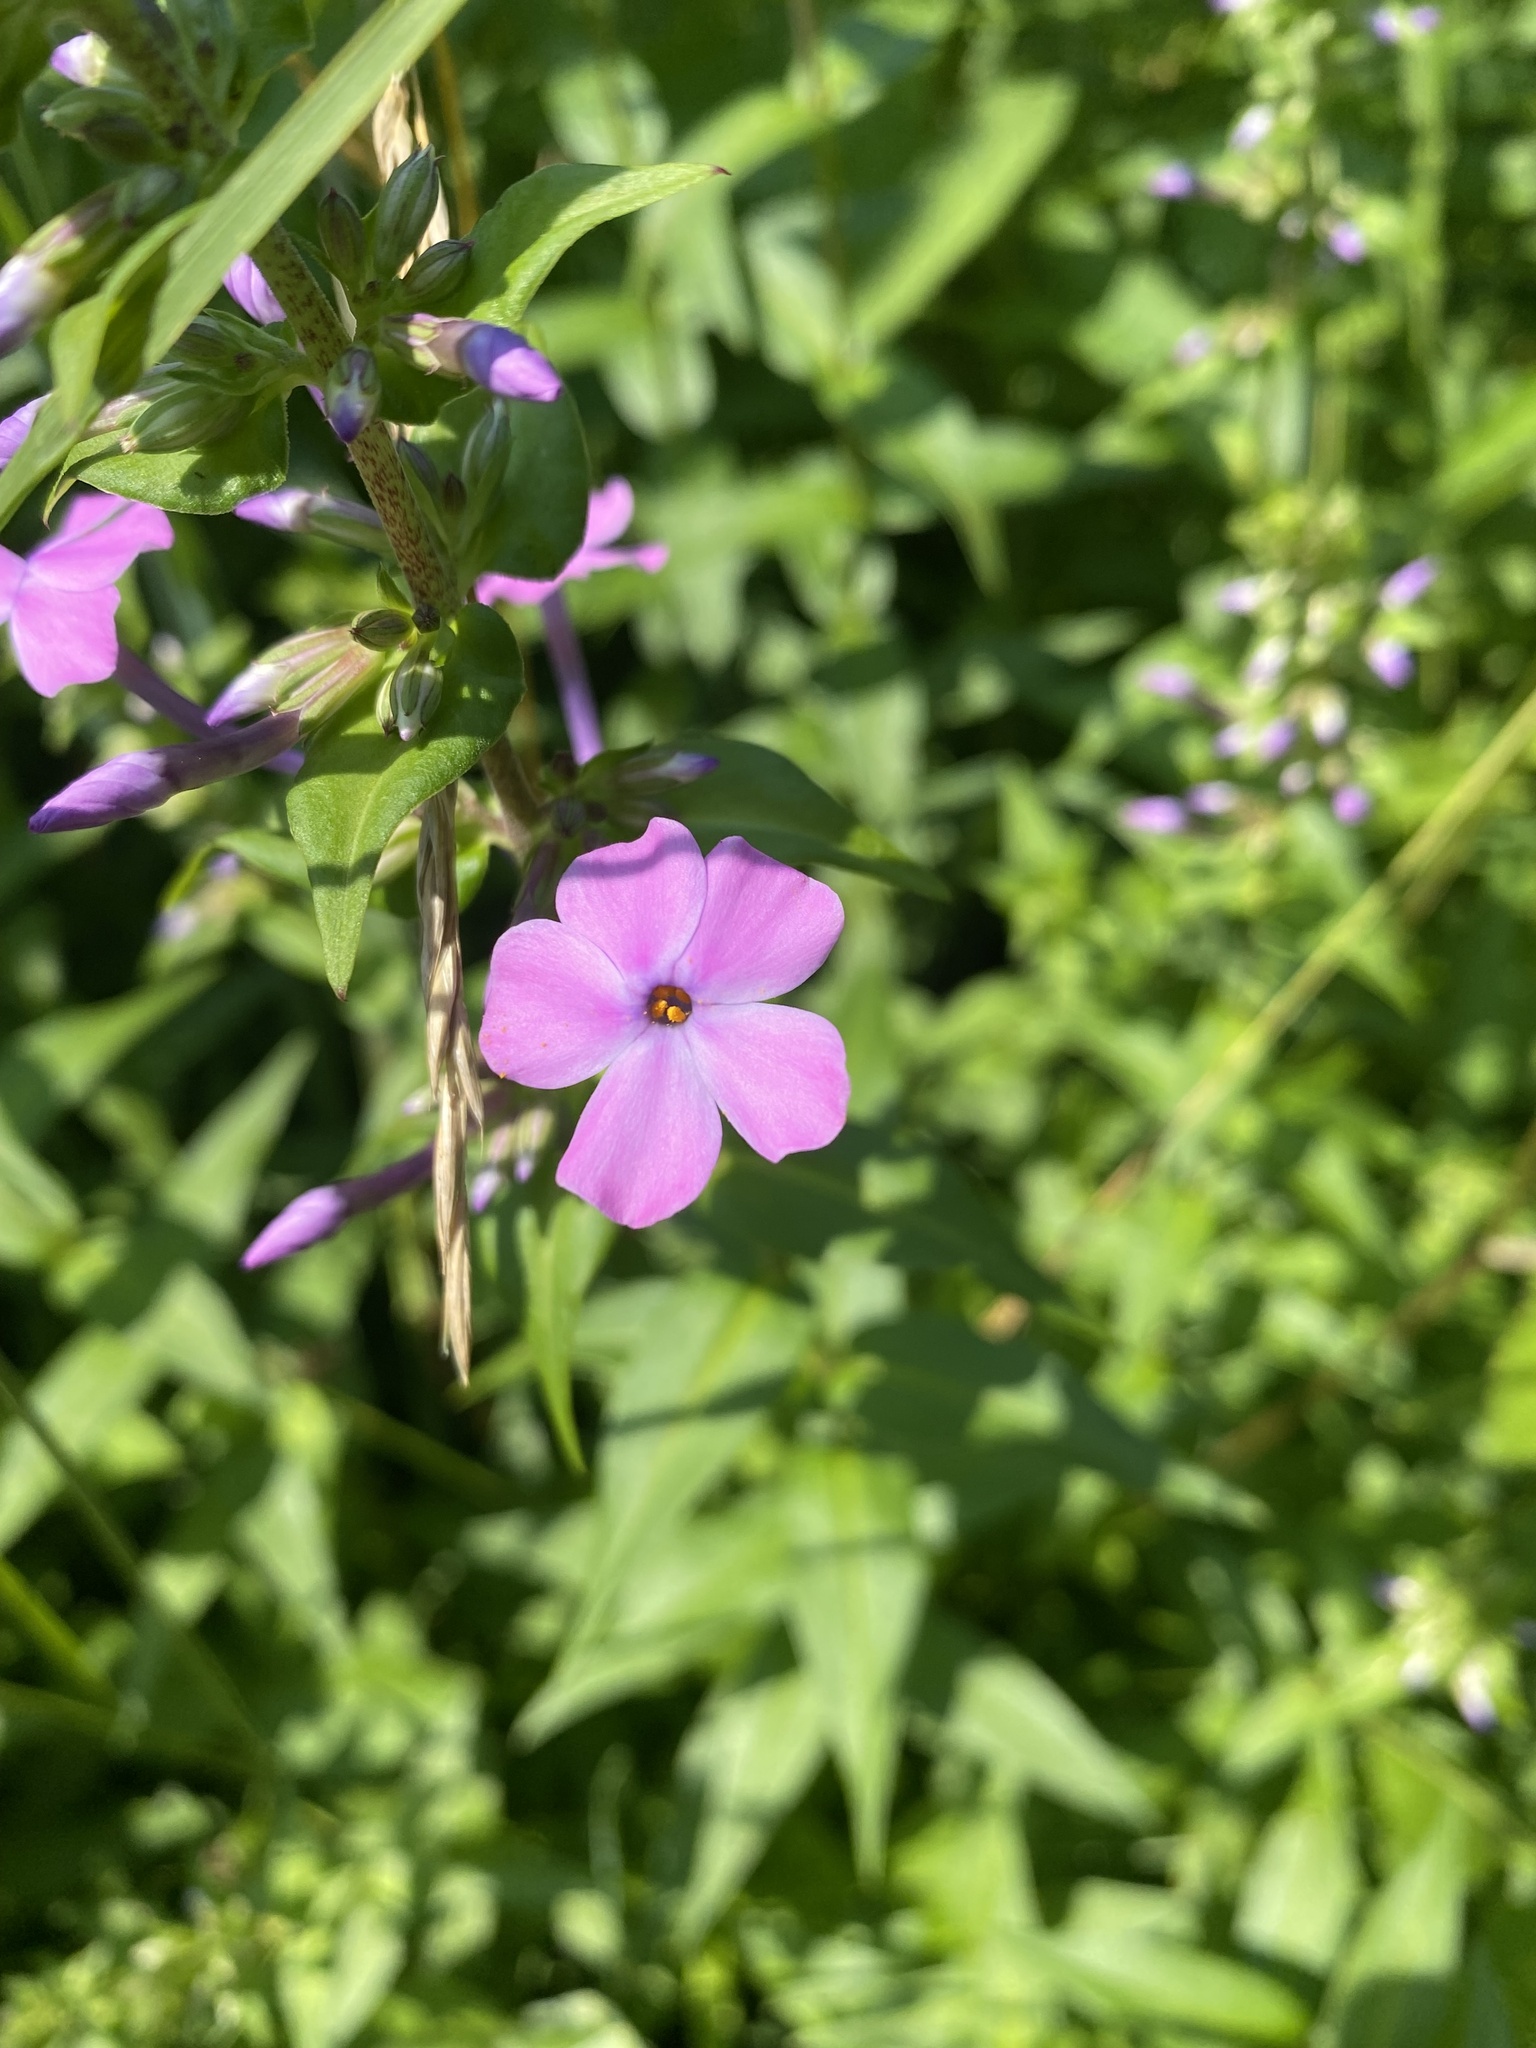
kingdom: Plantae
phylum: Tracheophyta
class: Magnoliopsida
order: Ericales
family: Polemoniaceae
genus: Phlox
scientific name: Phlox maculata
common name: Meadow phlox
